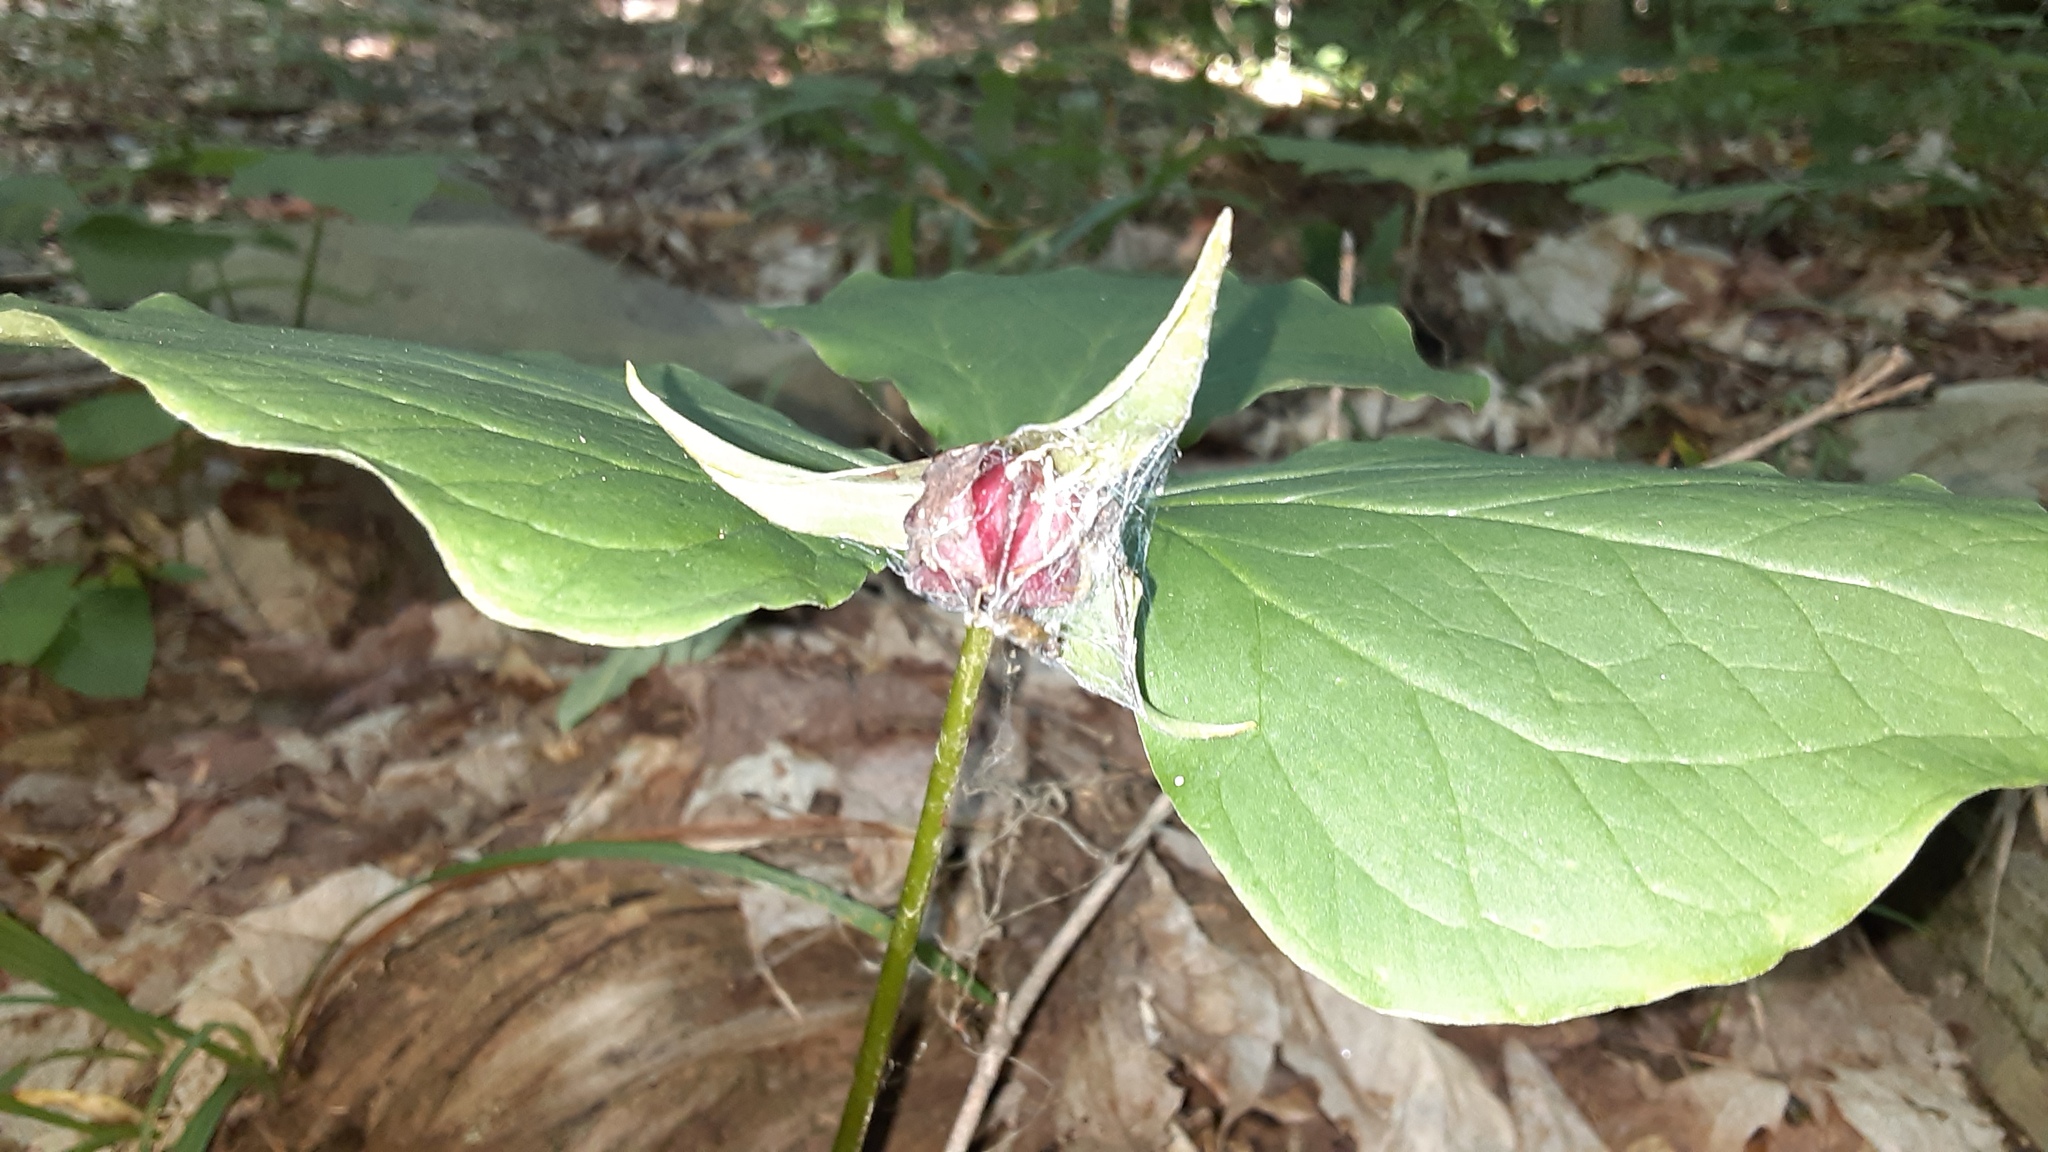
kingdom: Plantae
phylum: Tracheophyta
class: Liliopsida
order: Liliales
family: Melanthiaceae
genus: Trillium
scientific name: Trillium erectum
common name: Purple trillium
